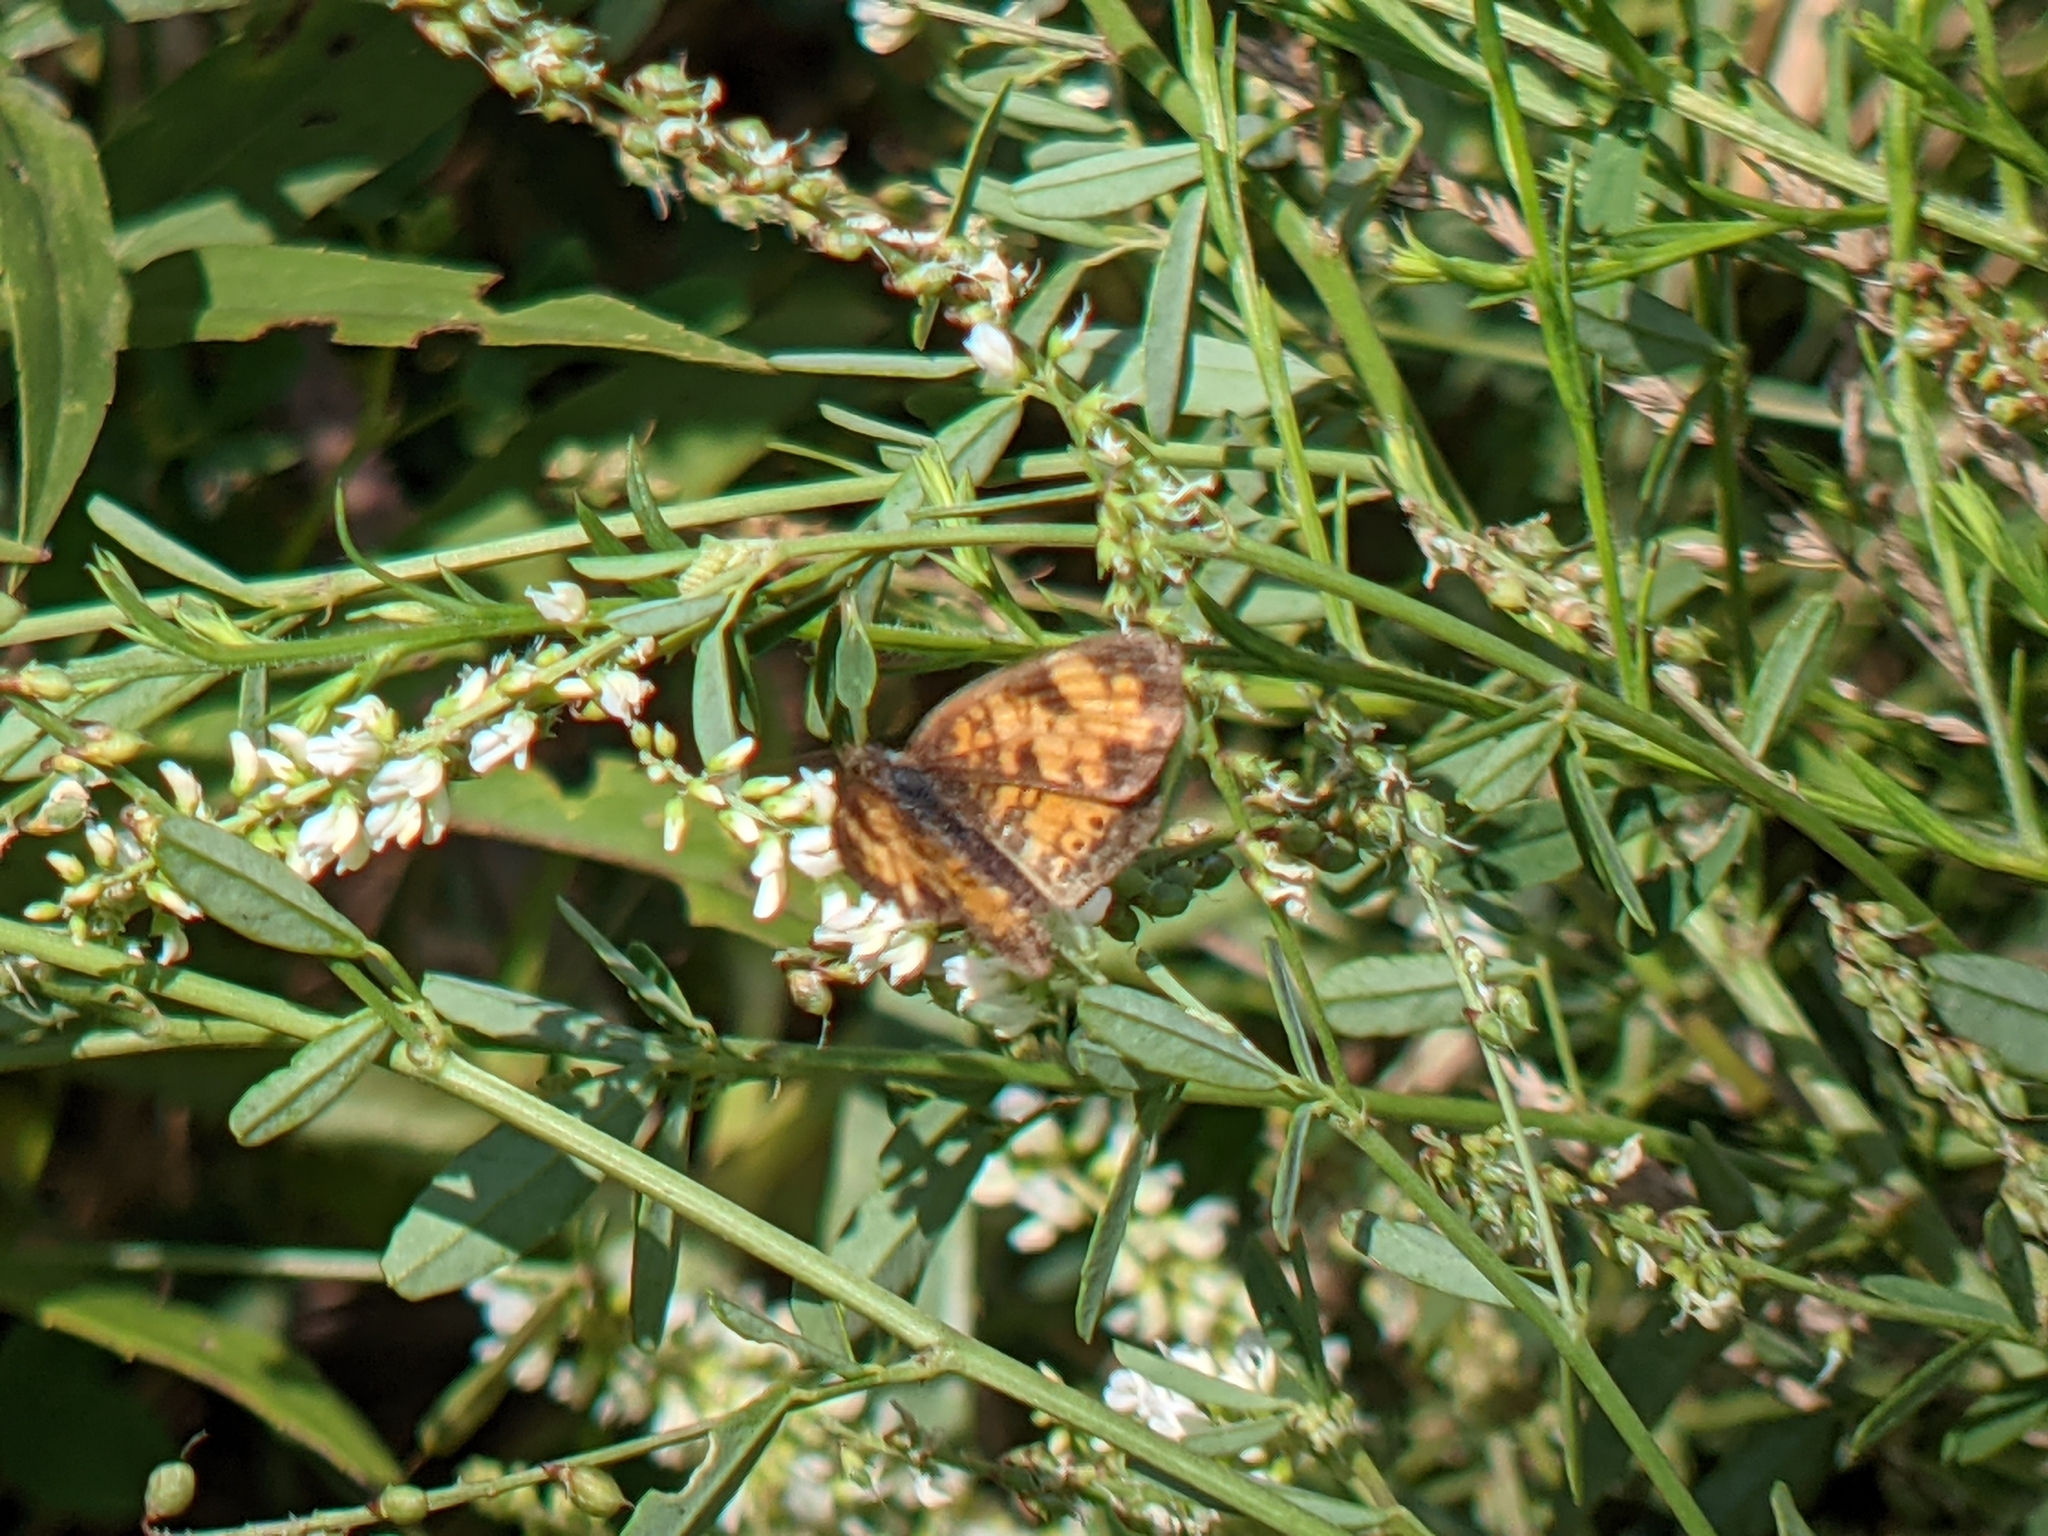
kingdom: Animalia
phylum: Arthropoda
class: Insecta
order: Lepidoptera
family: Nymphalidae
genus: Phyciodes
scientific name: Phyciodes tharos
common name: Pearl crescent
